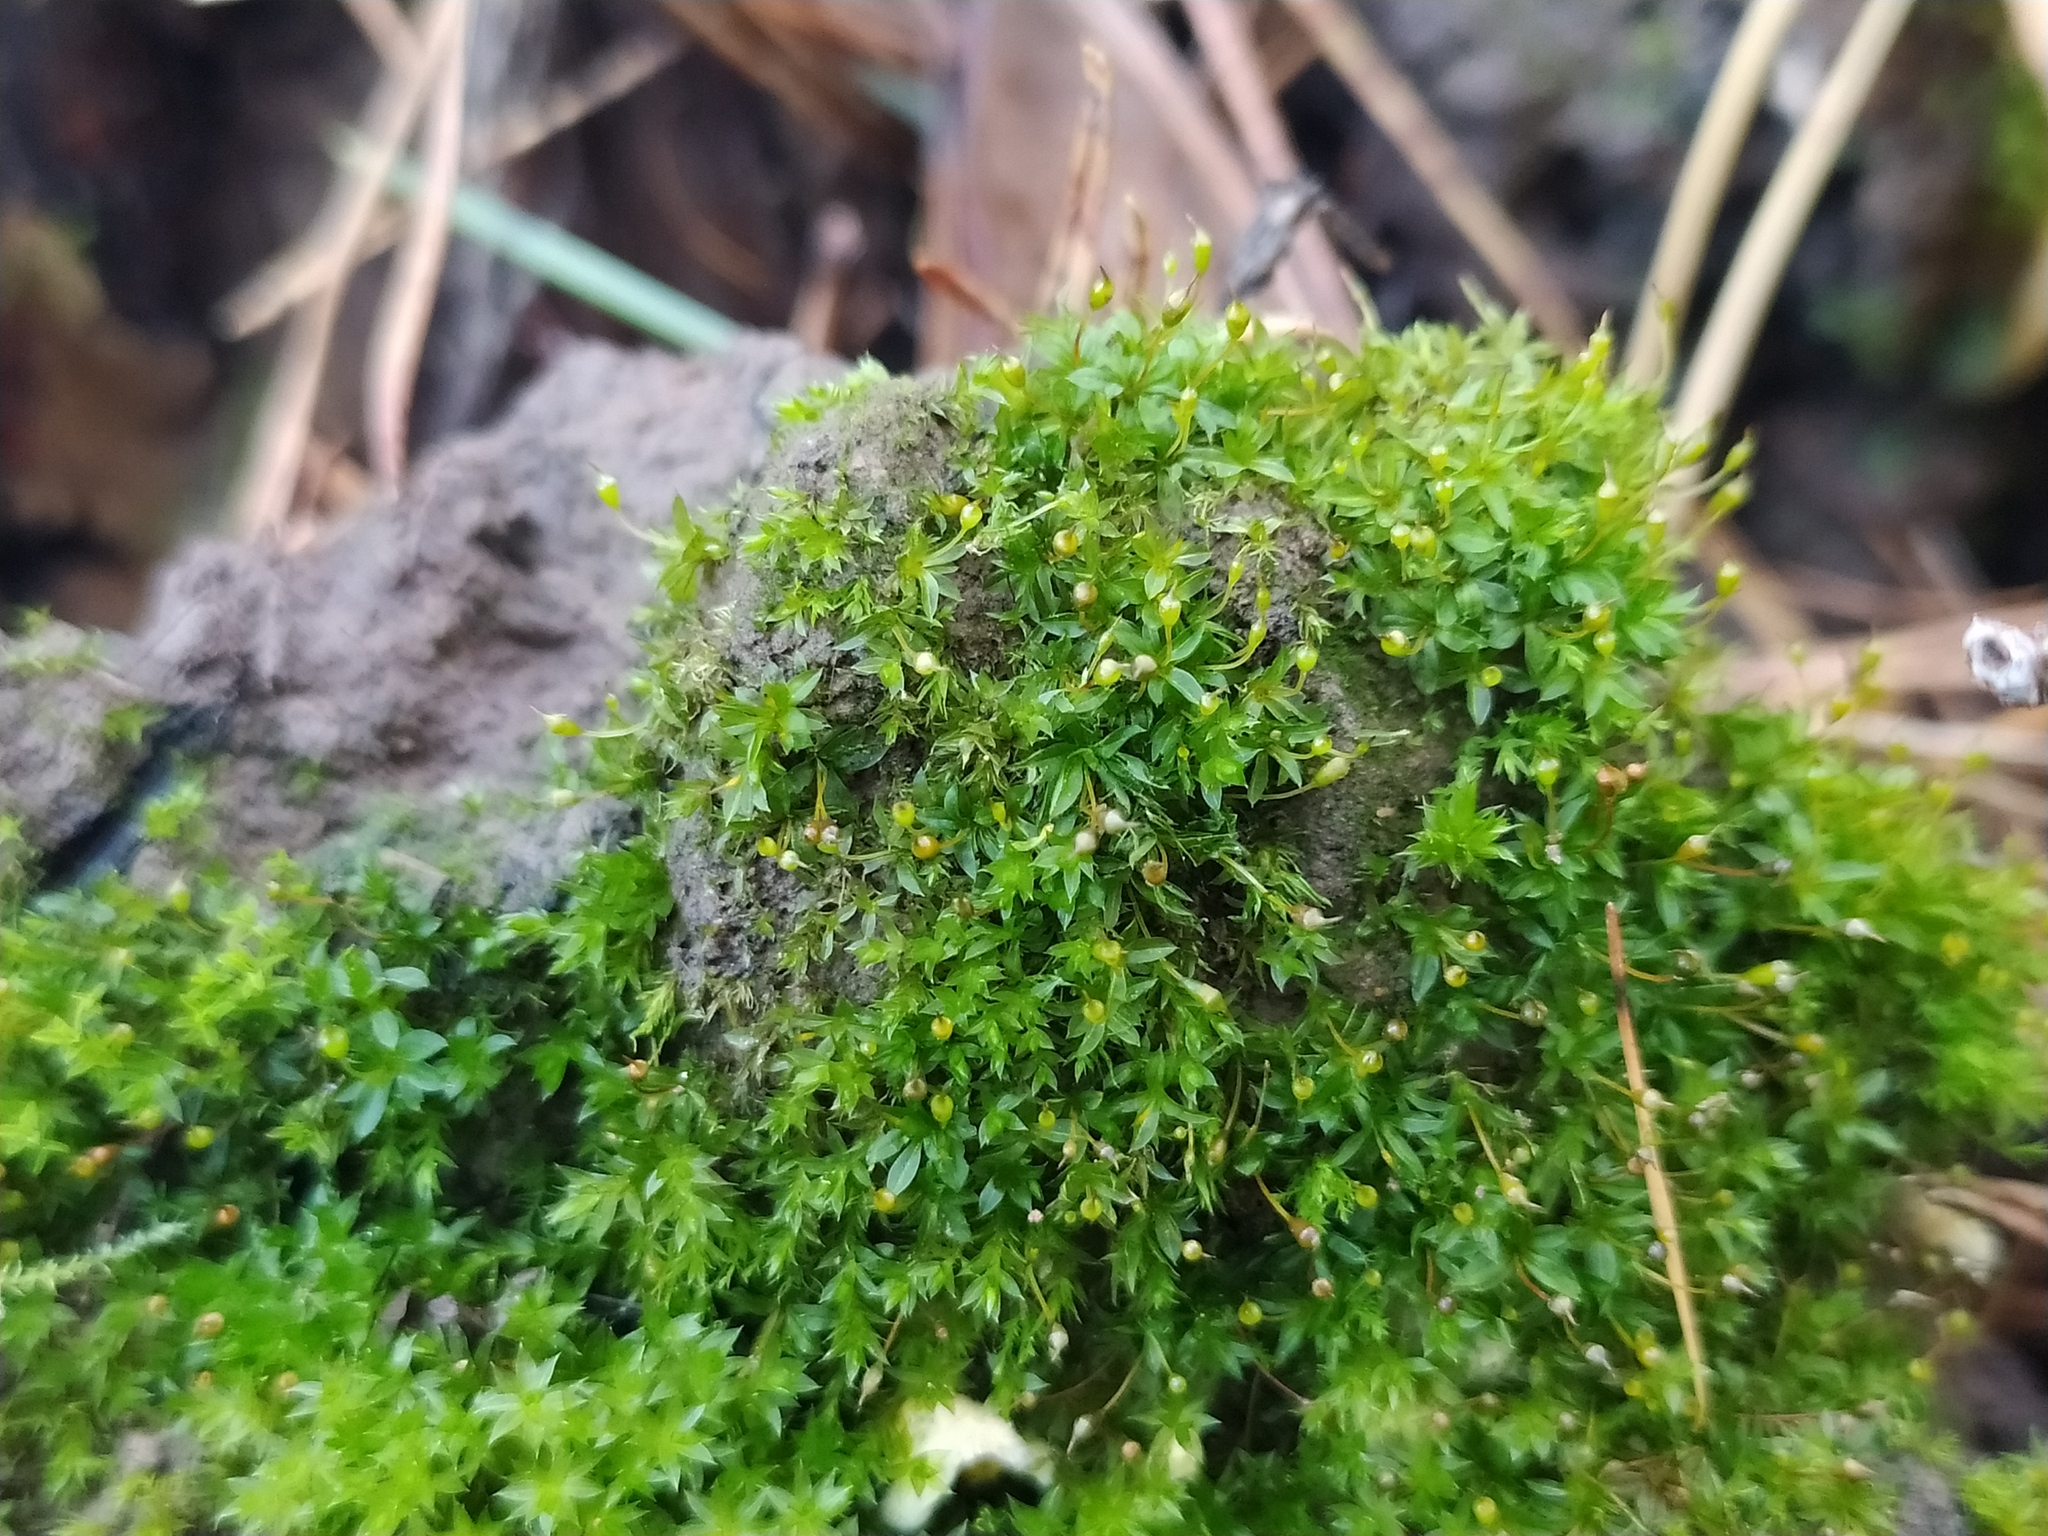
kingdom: Plantae
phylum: Bryophyta
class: Bryopsida
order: Pottiales
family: Pottiaceae
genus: Tortula
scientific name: Tortula truncata
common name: Truncated screw moss
